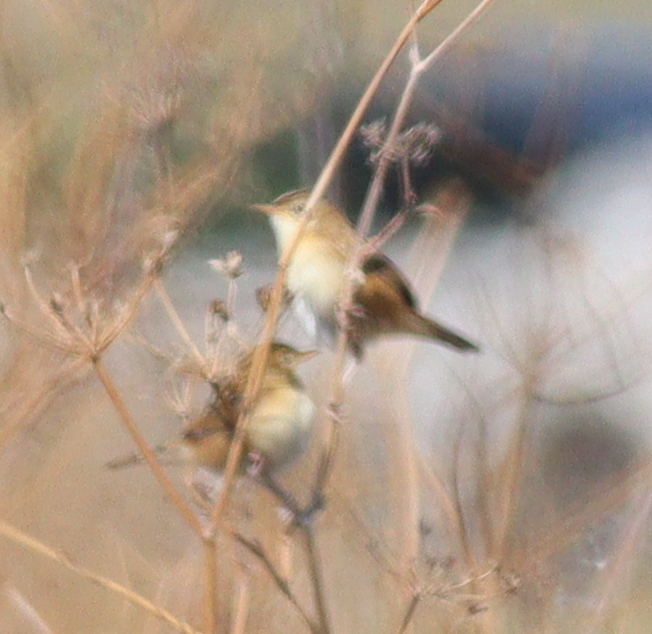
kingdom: Animalia
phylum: Chordata
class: Aves
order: Passeriformes
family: Cisticolidae
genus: Cisticola
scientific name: Cisticola juncidis
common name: Zitting cisticola
